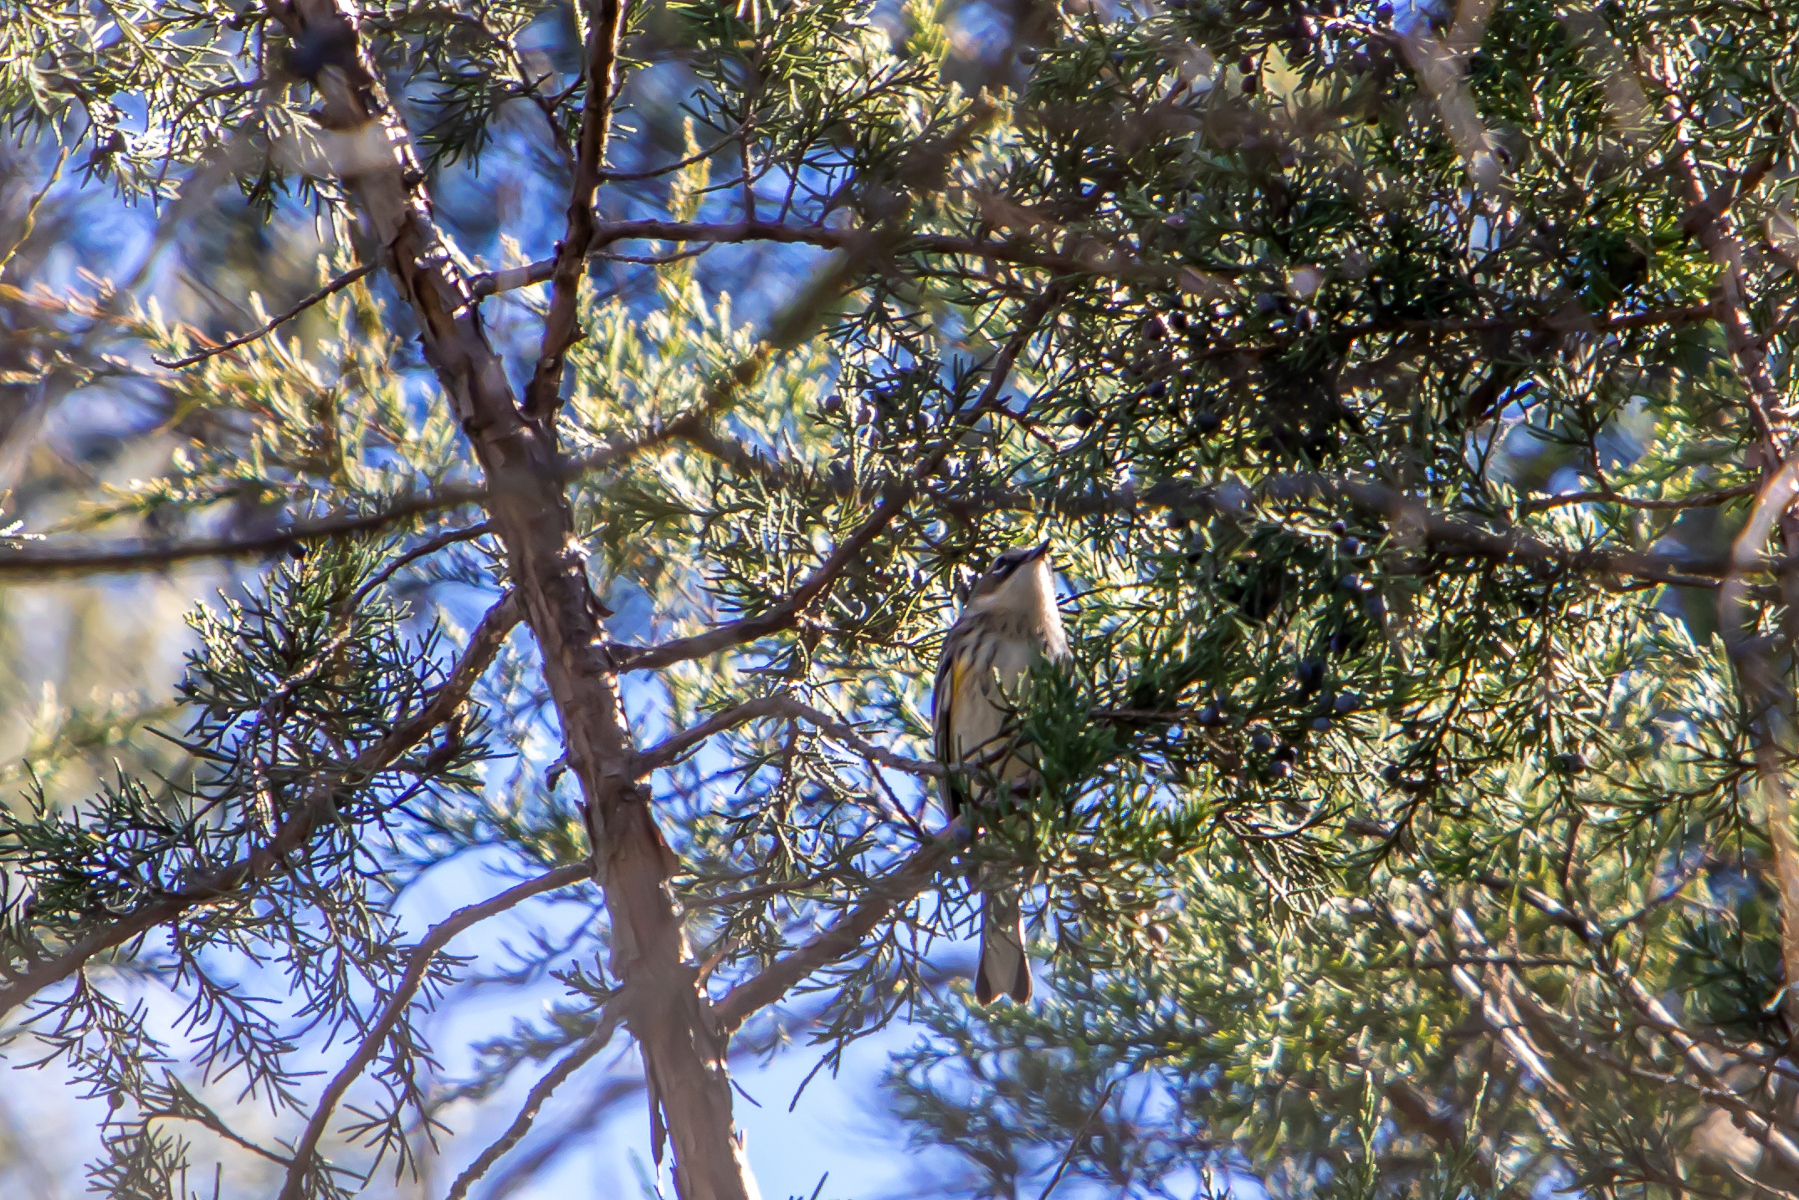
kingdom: Animalia
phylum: Chordata
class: Aves
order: Passeriformes
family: Parulidae
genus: Setophaga
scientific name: Setophaga coronata
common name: Myrtle warbler
